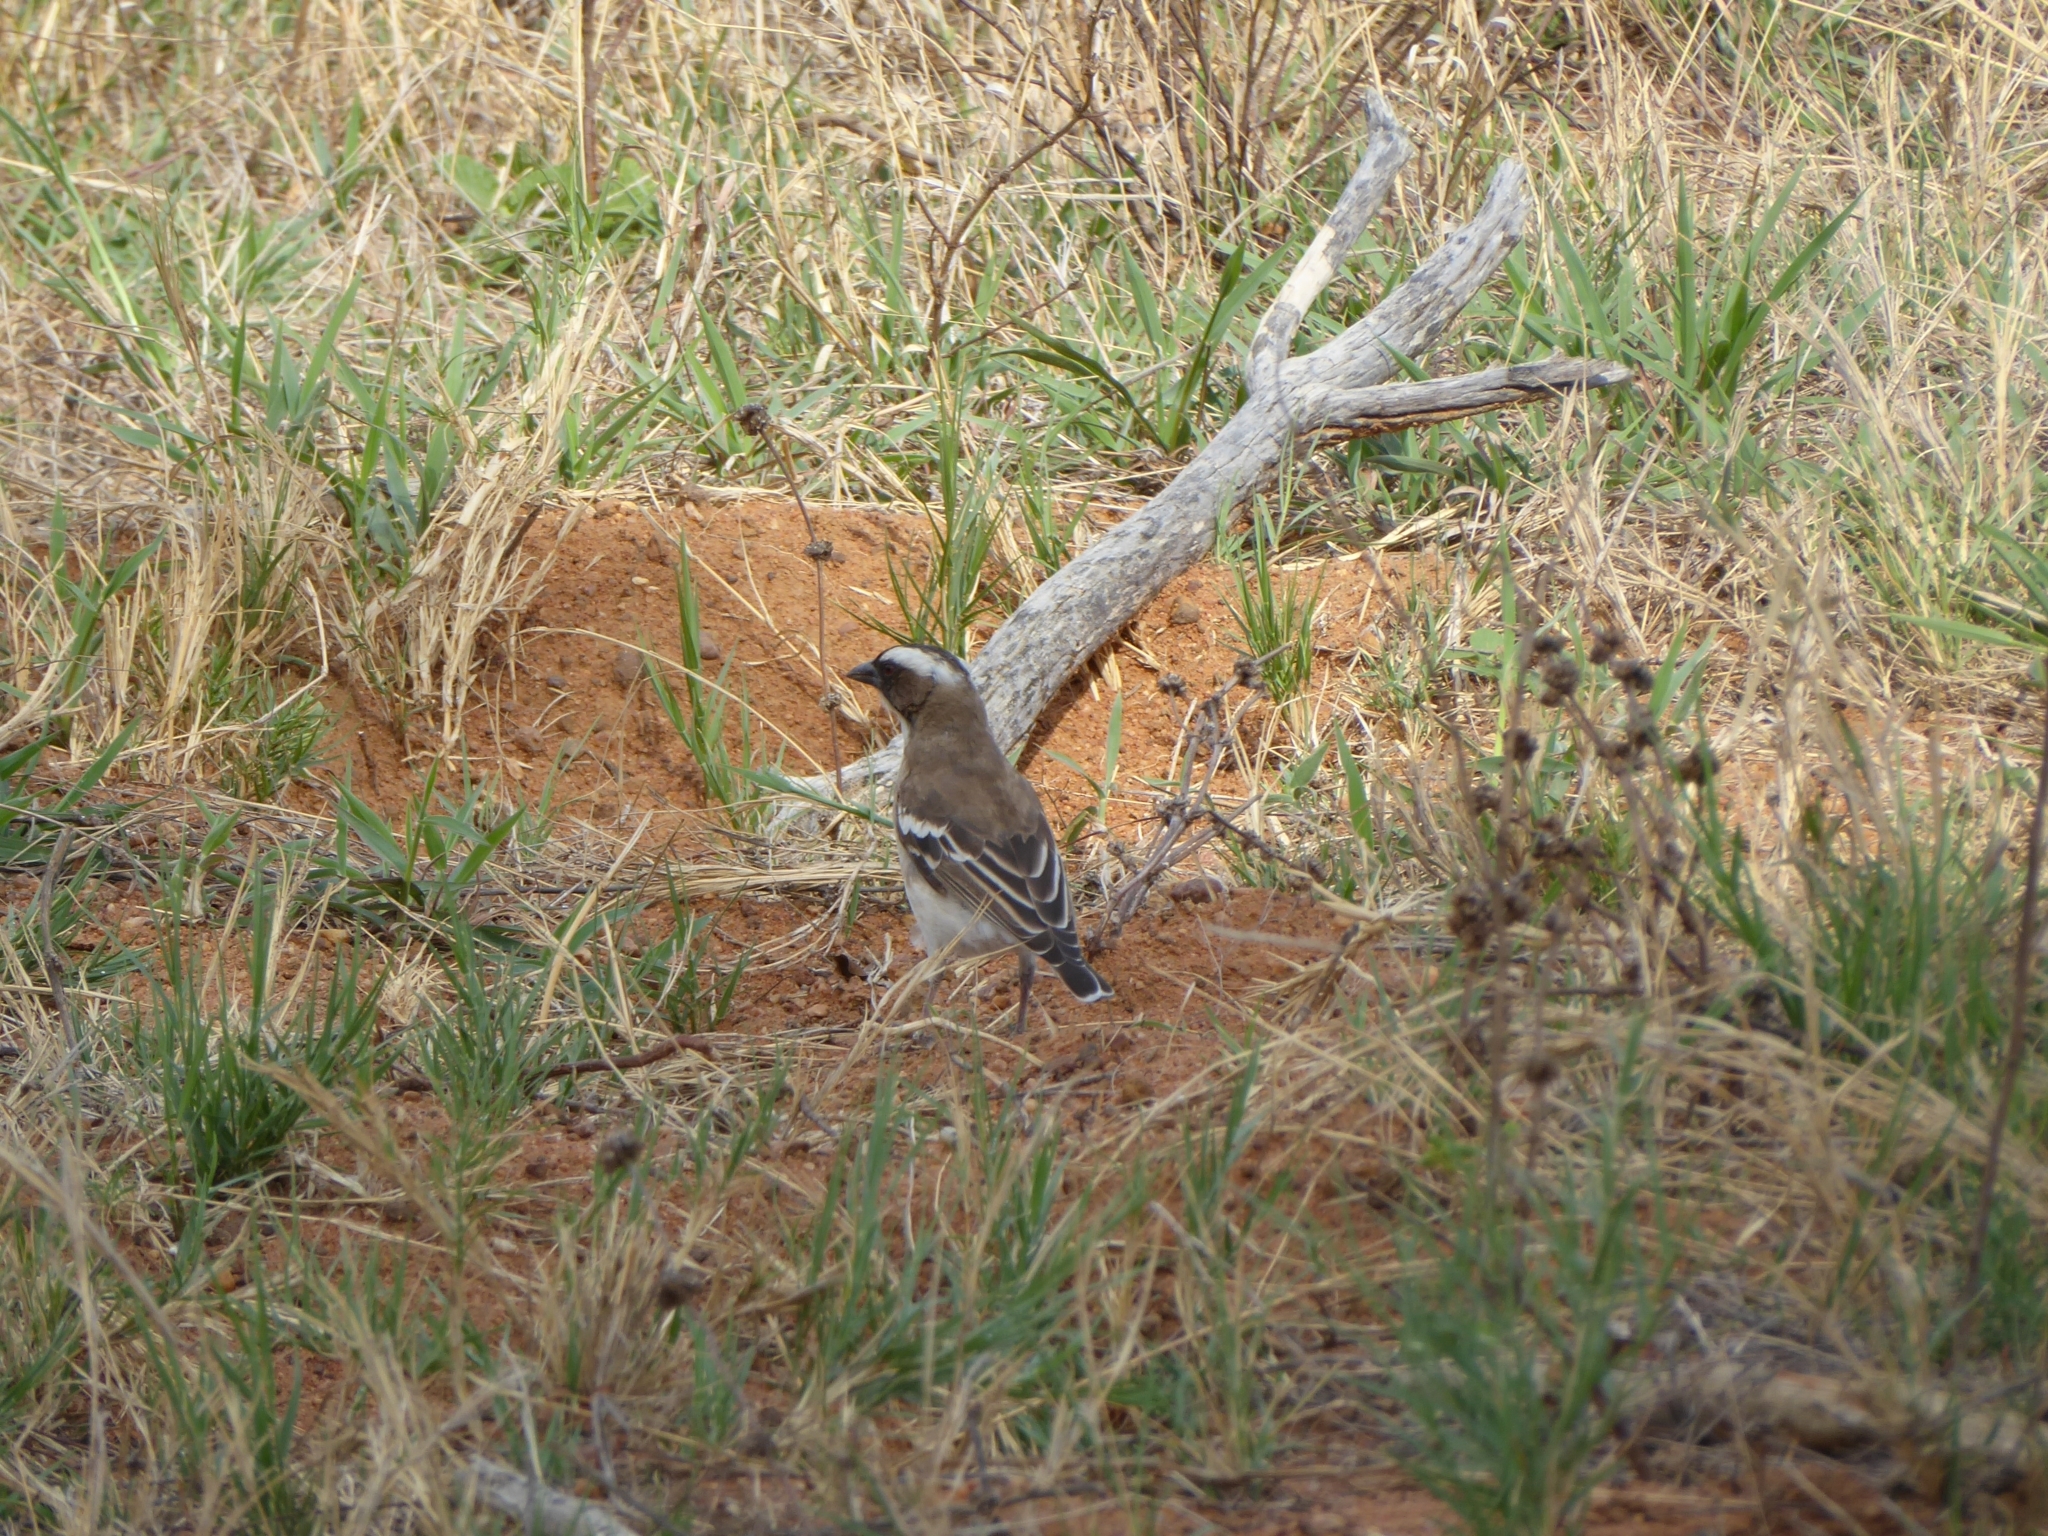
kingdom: Animalia
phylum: Chordata
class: Aves
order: Passeriformes
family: Passeridae
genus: Plocepasser
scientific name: Plocepasser mahali
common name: White-browed sparrow-weaver
